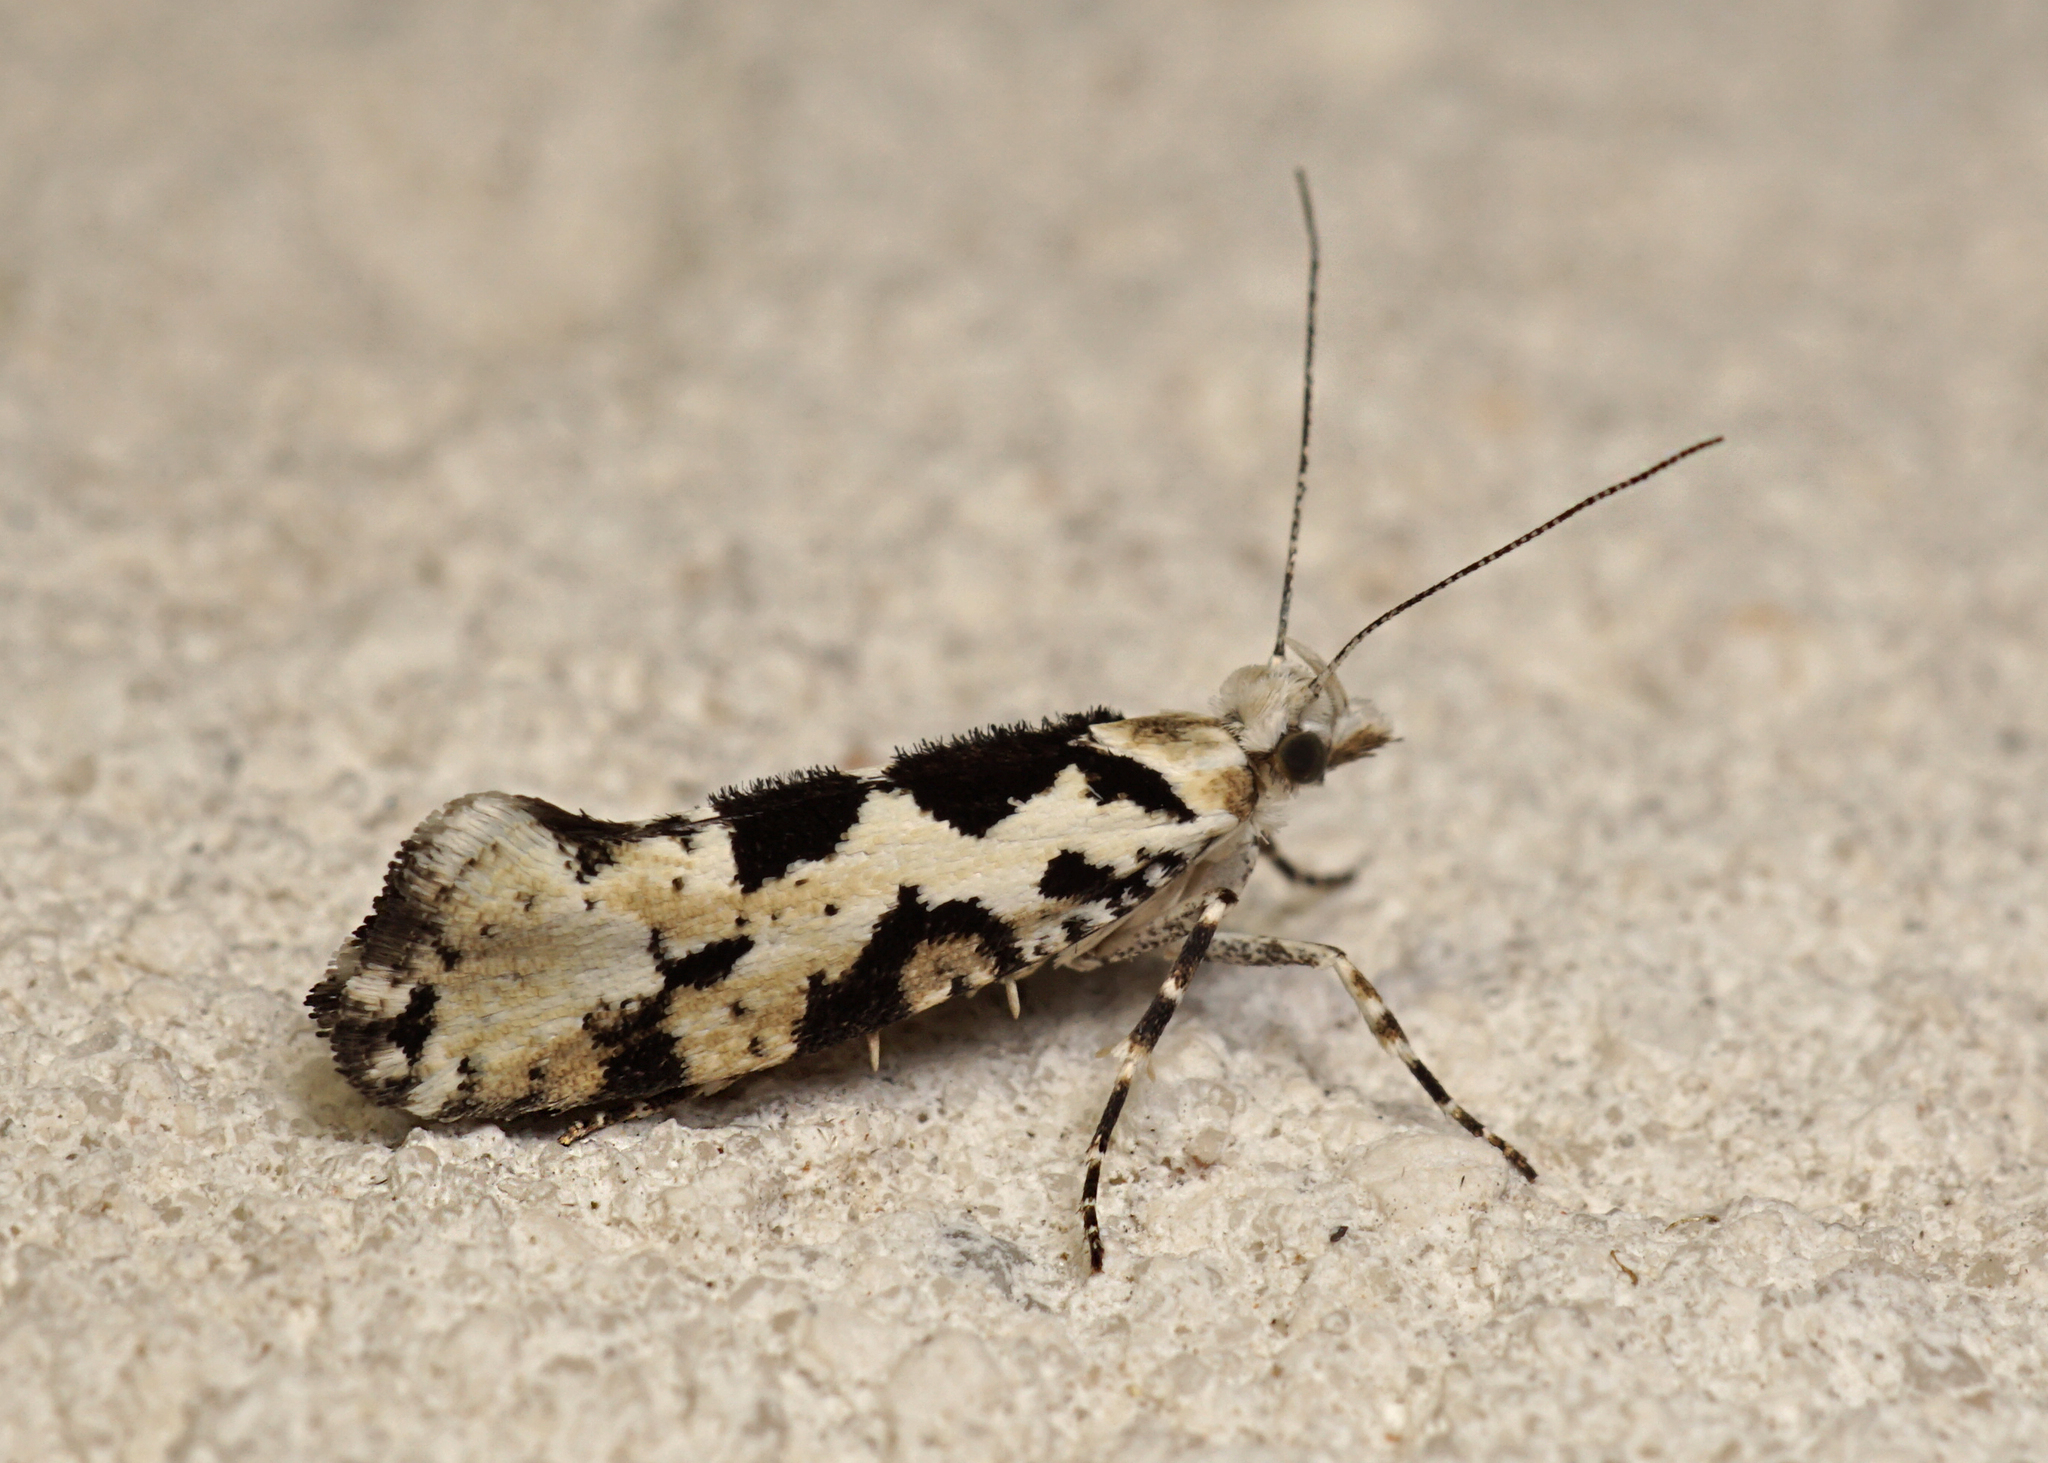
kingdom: Animalia
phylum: Arthropoda
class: Insecta
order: Lepidoptera
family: Plutellidae
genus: Ypsolophus
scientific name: Ypsolophus sequella
